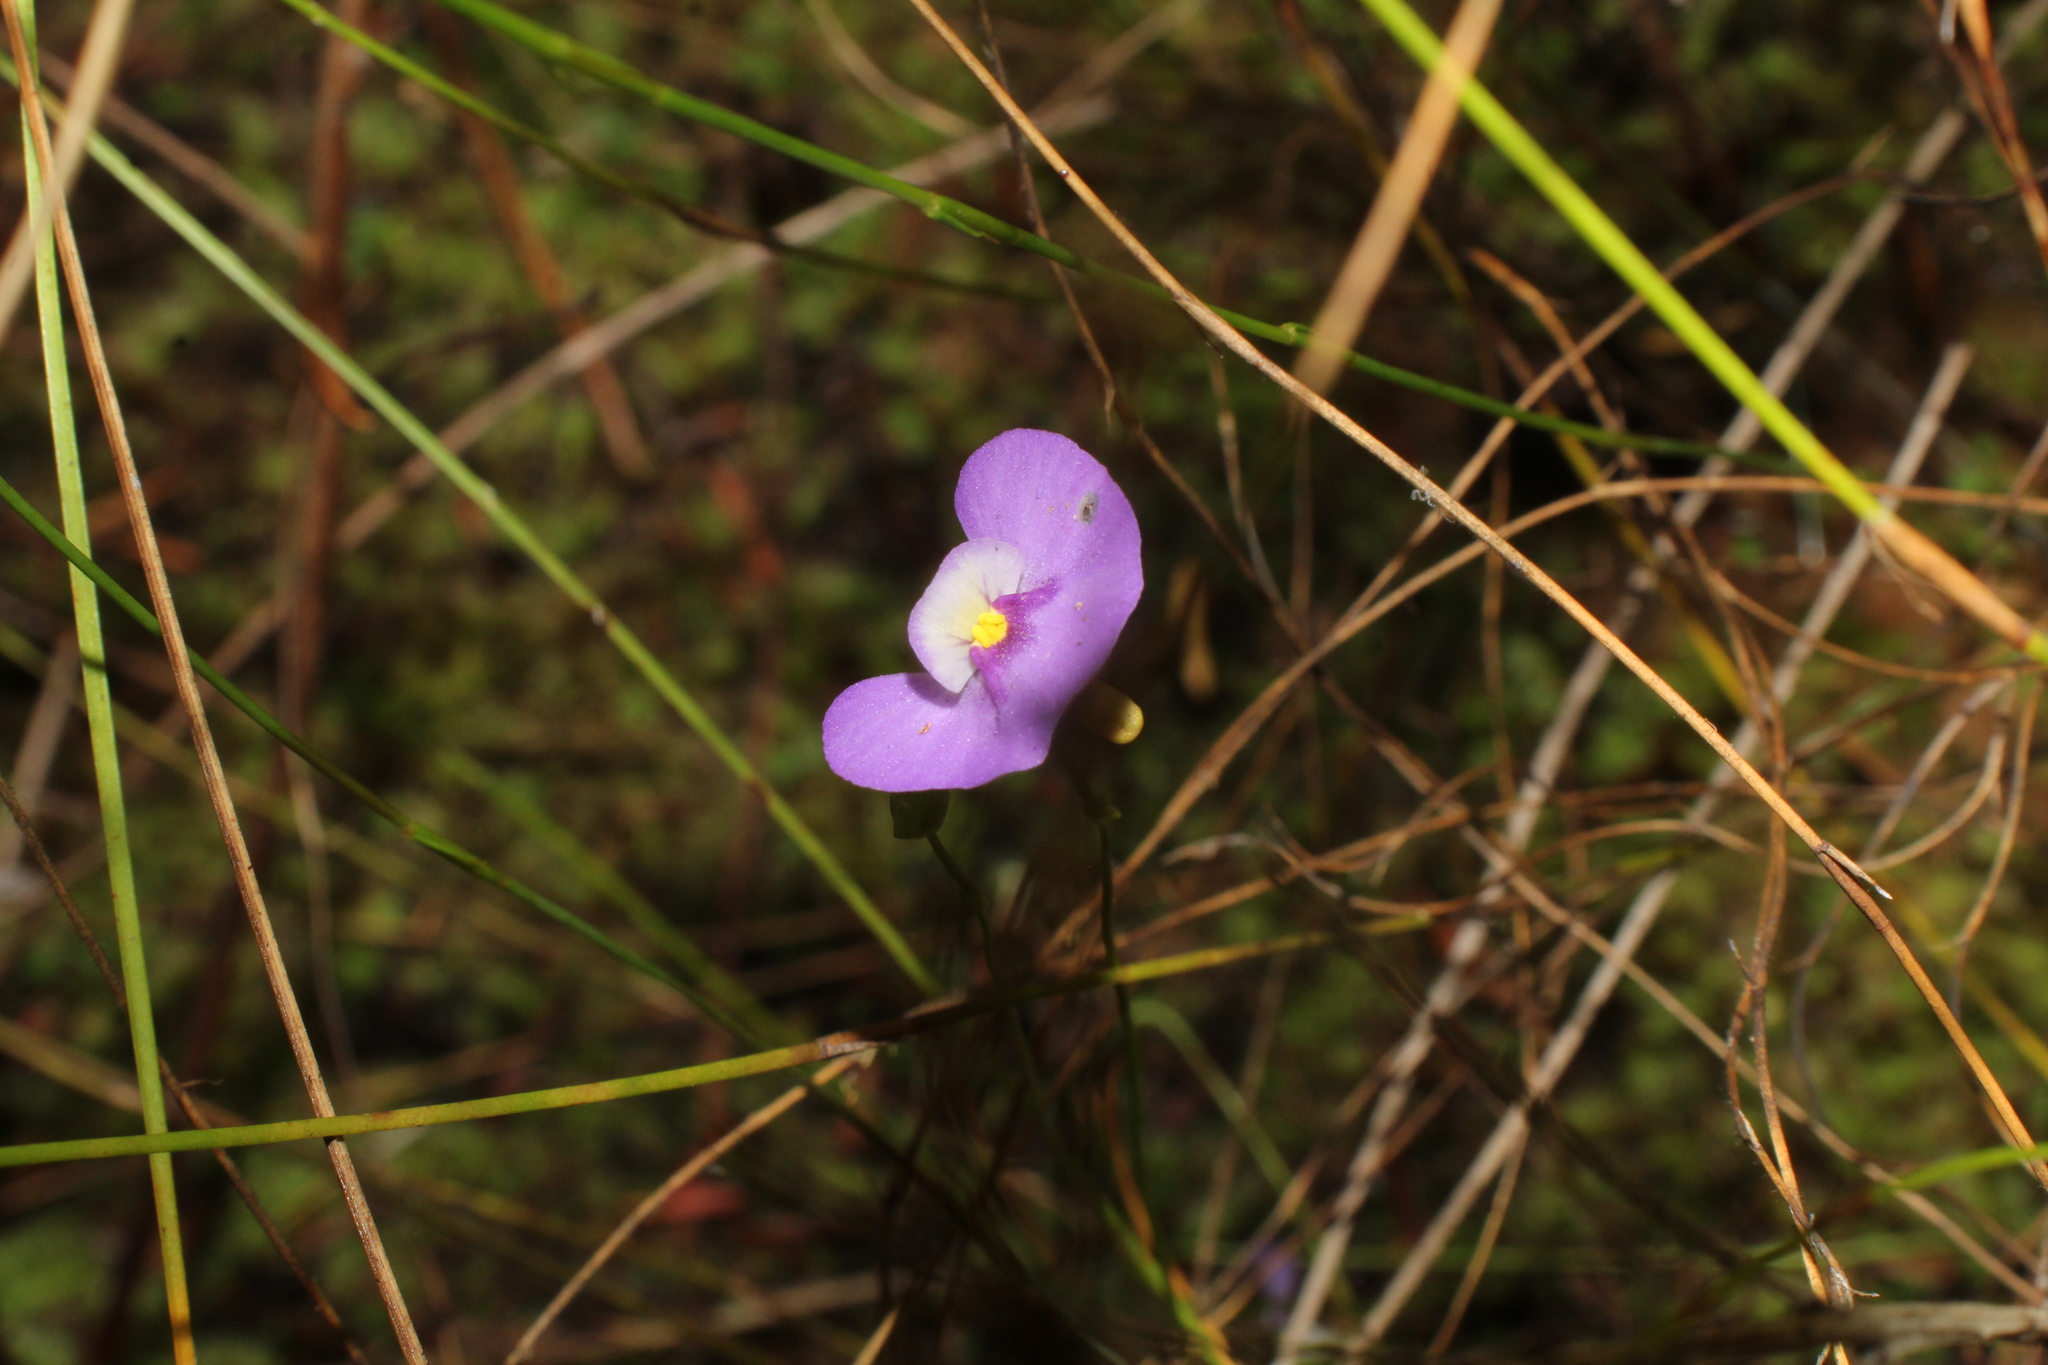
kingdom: Plantae
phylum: Tracheophyta
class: Magnoliopsida
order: Lamiales
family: Lentibulariaceae
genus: Utricularia
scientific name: Utricularia paulineae
